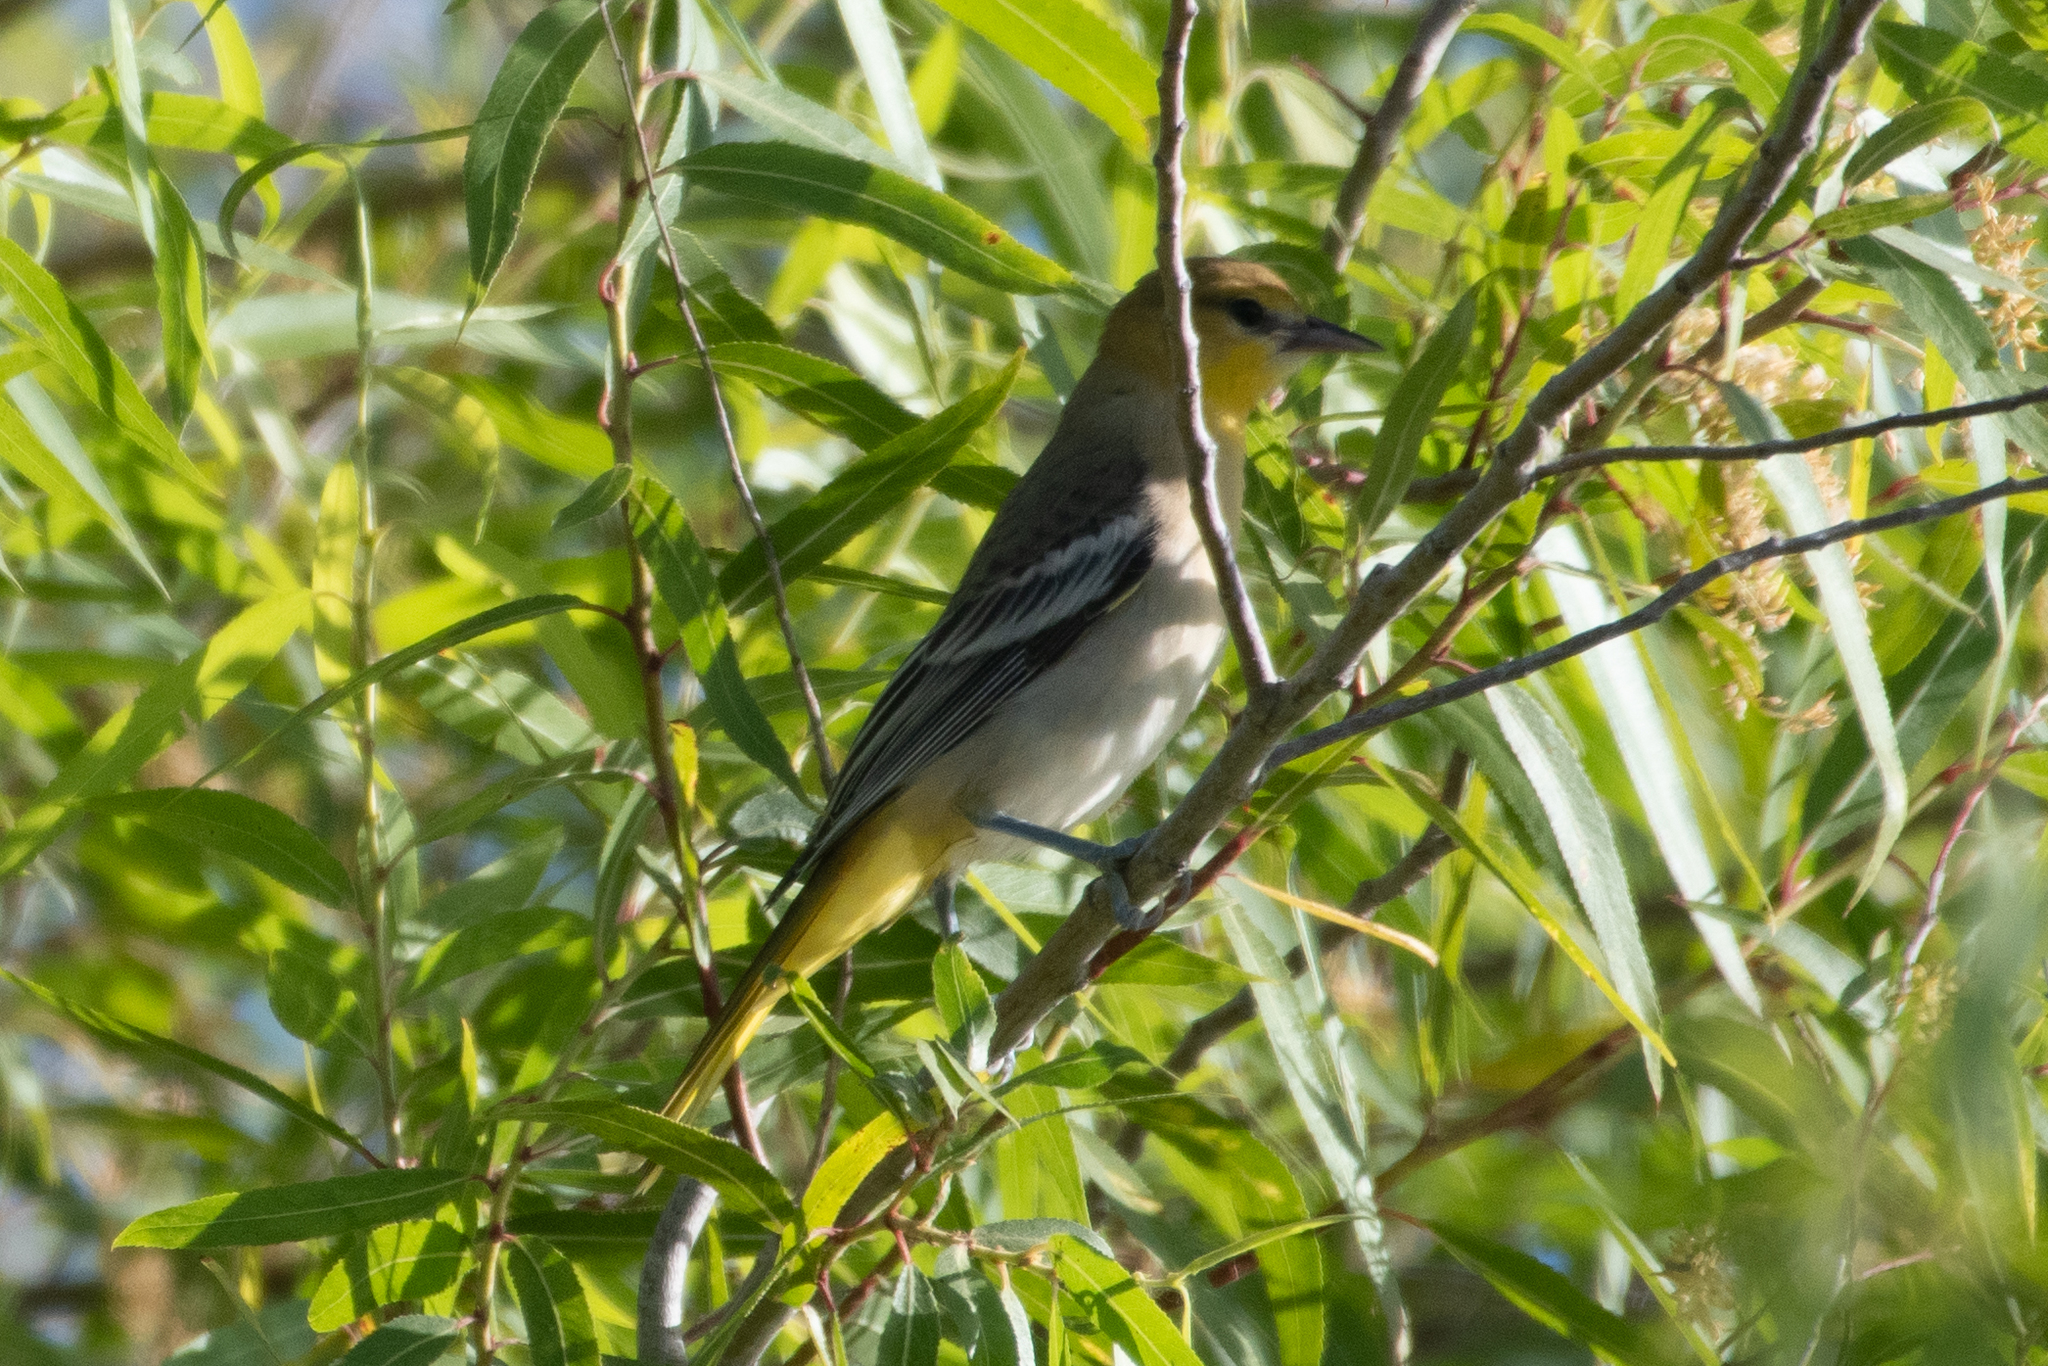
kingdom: Animalia
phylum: Chordata
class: Aves
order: Passeriformes
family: Icteridae
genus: Icterus
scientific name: Icterus bullockii
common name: Bullock's oriole
